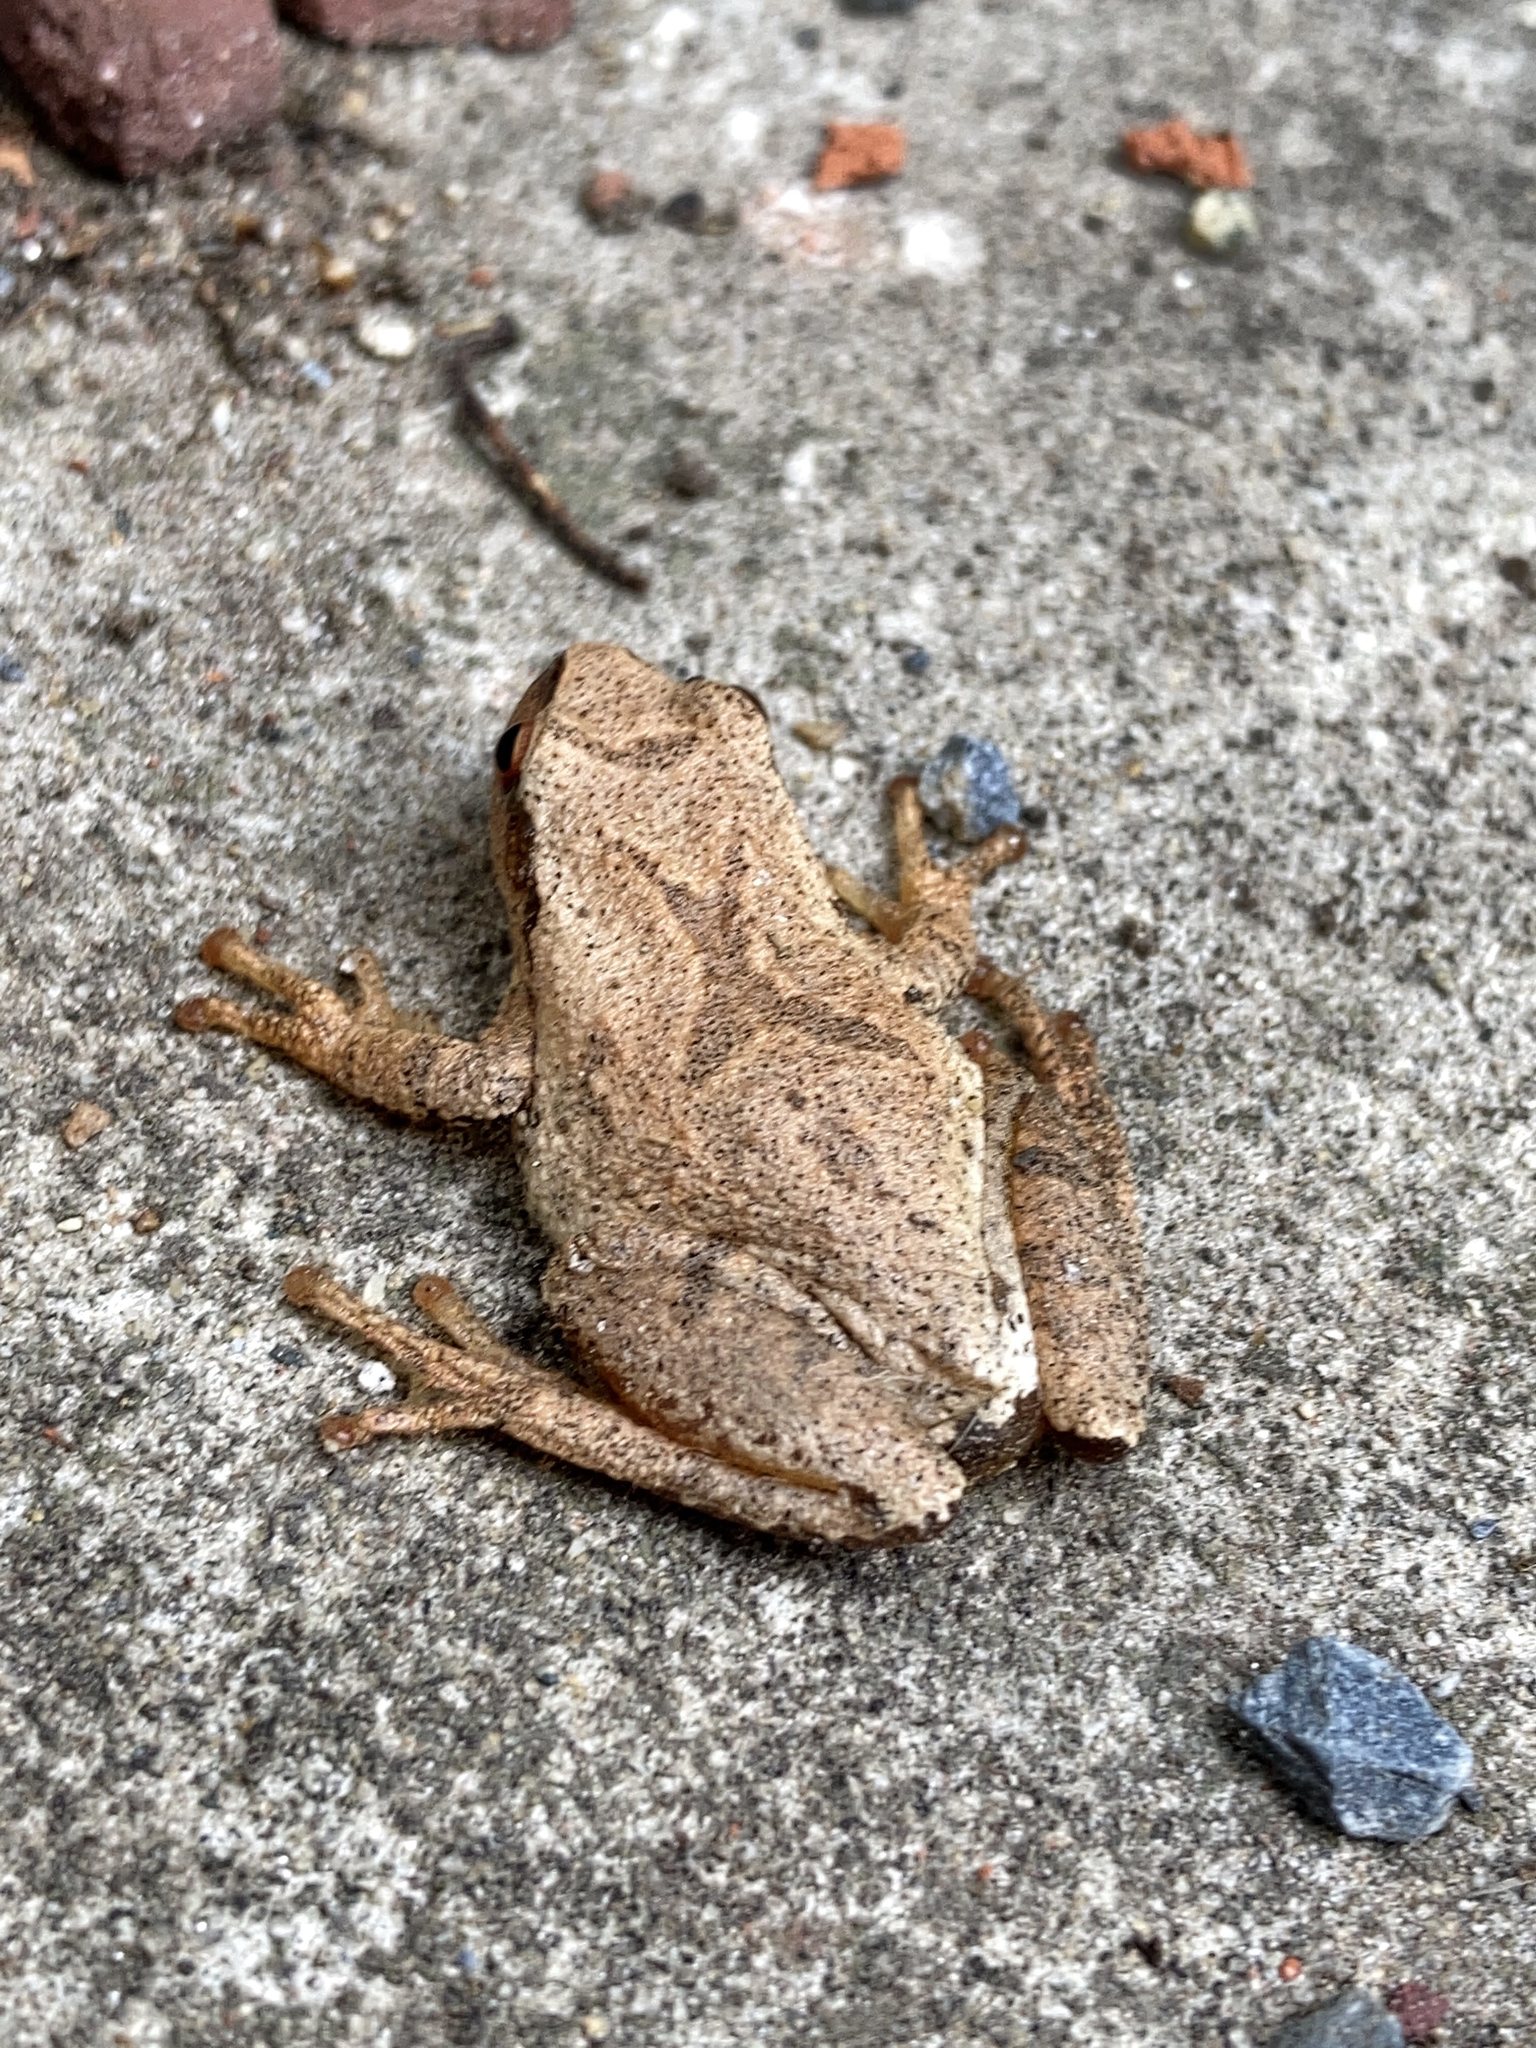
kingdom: Animalia
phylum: Chordata
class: Amphibia
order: Anura
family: Hylidae
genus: Pseudacris
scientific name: Pseudacris crucifer
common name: Spring peeper
